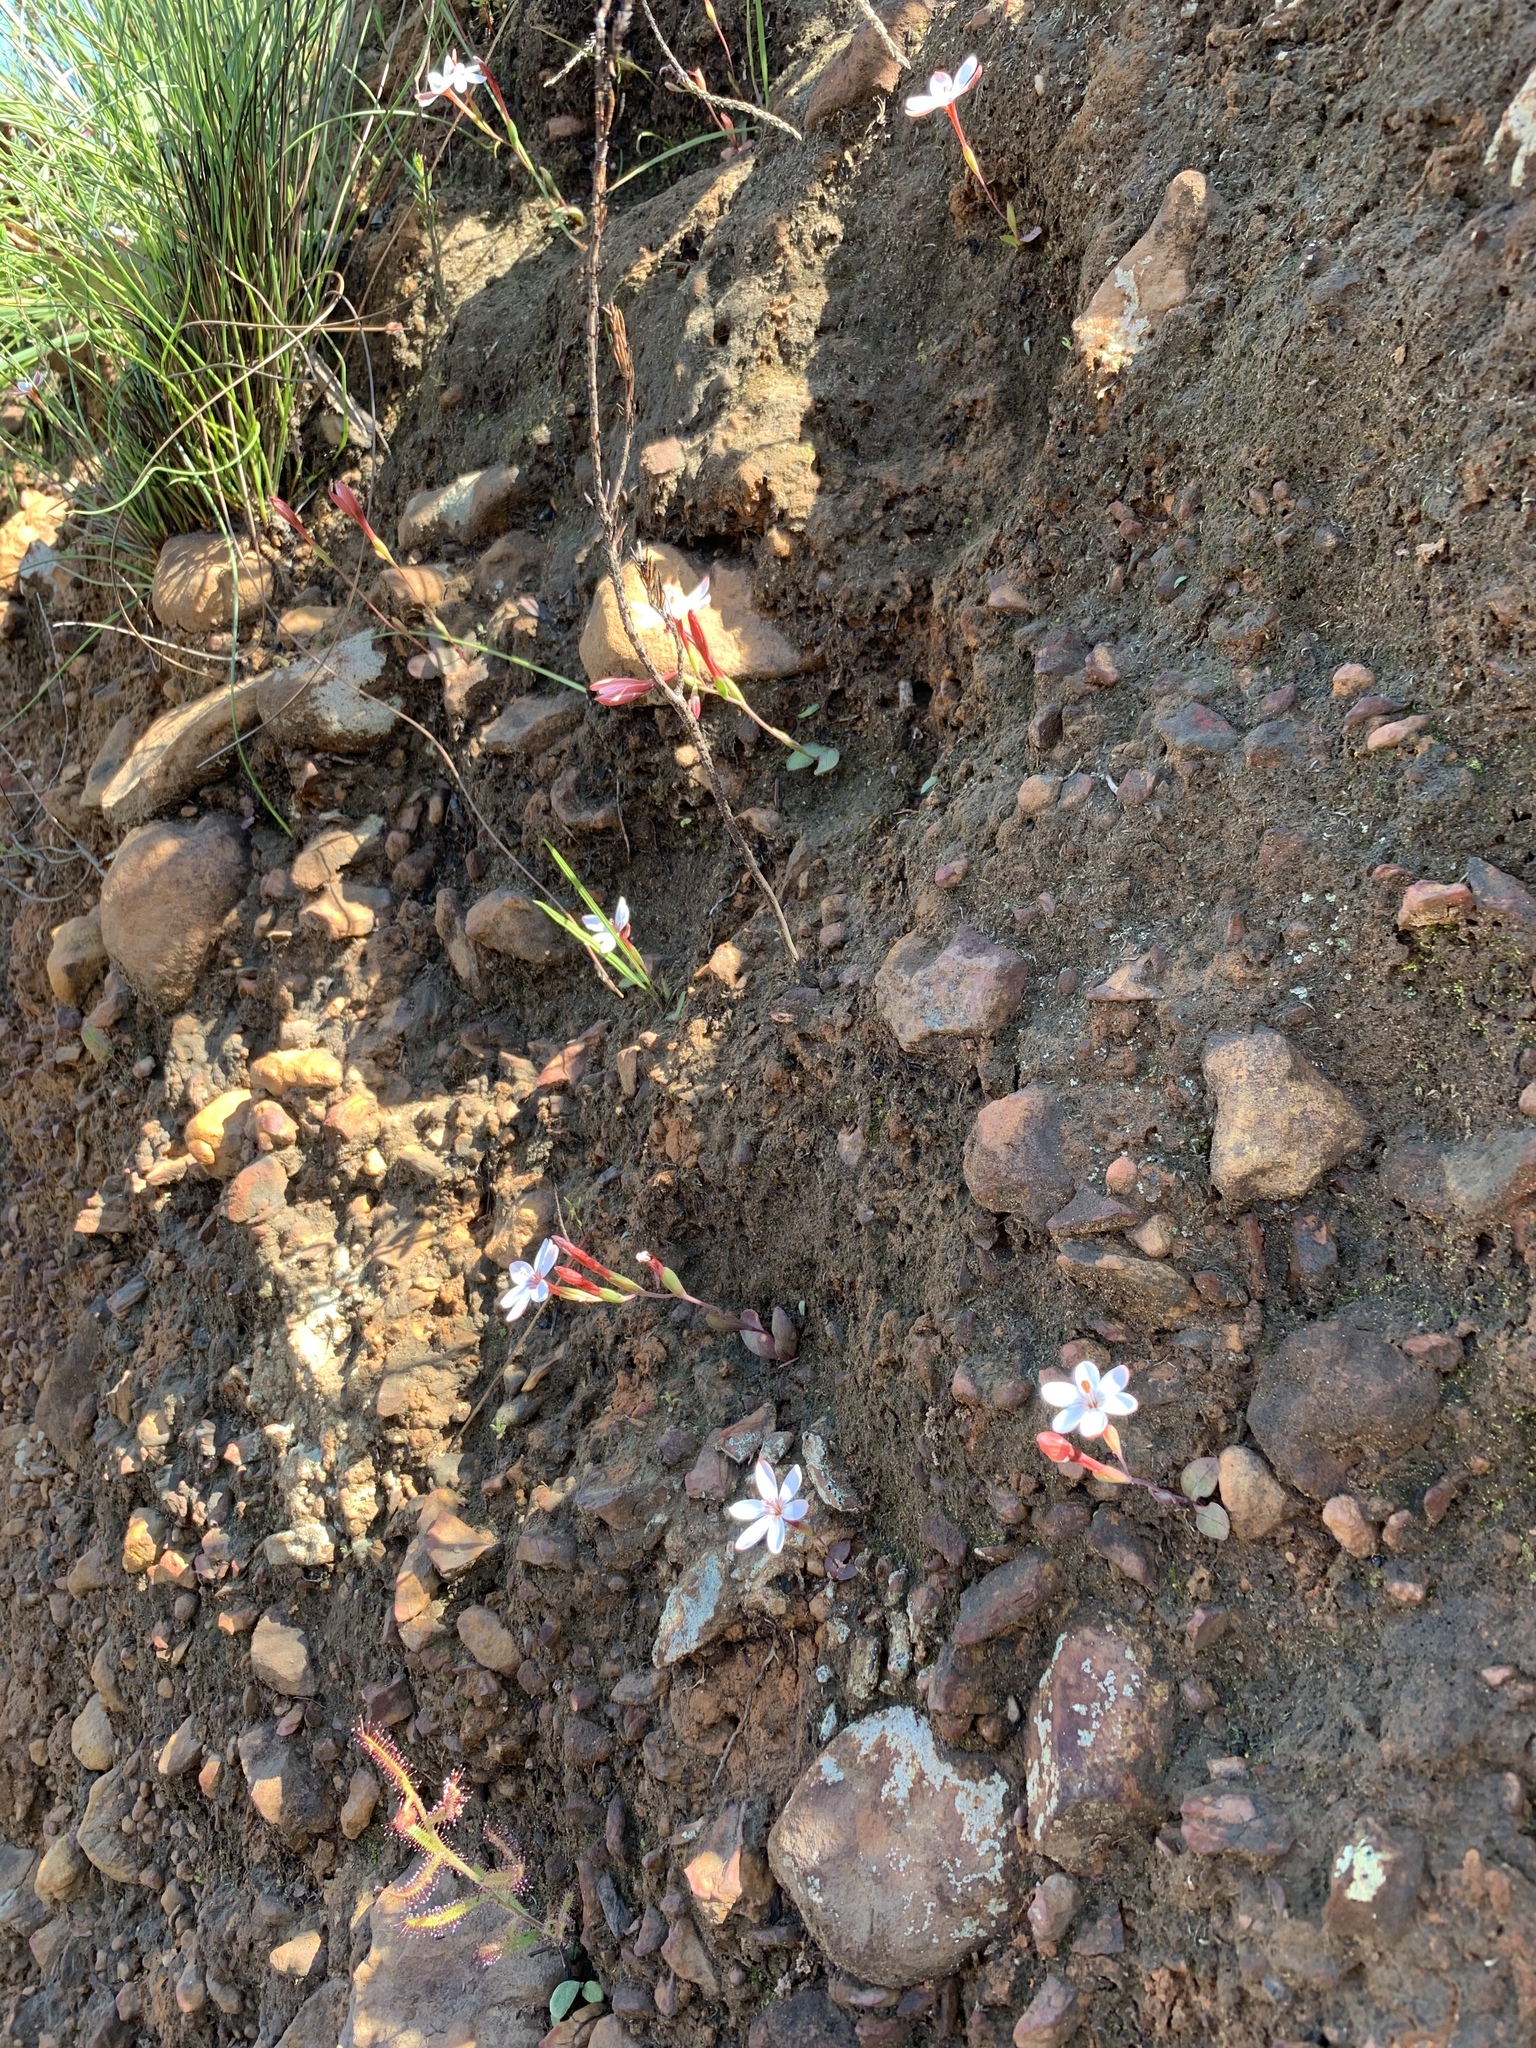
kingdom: Plantae
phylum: Tracheophyta
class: Liliopsida
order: Asparagales
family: Iridaceae
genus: Geissorhiza
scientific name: Geissorhiza ovata
